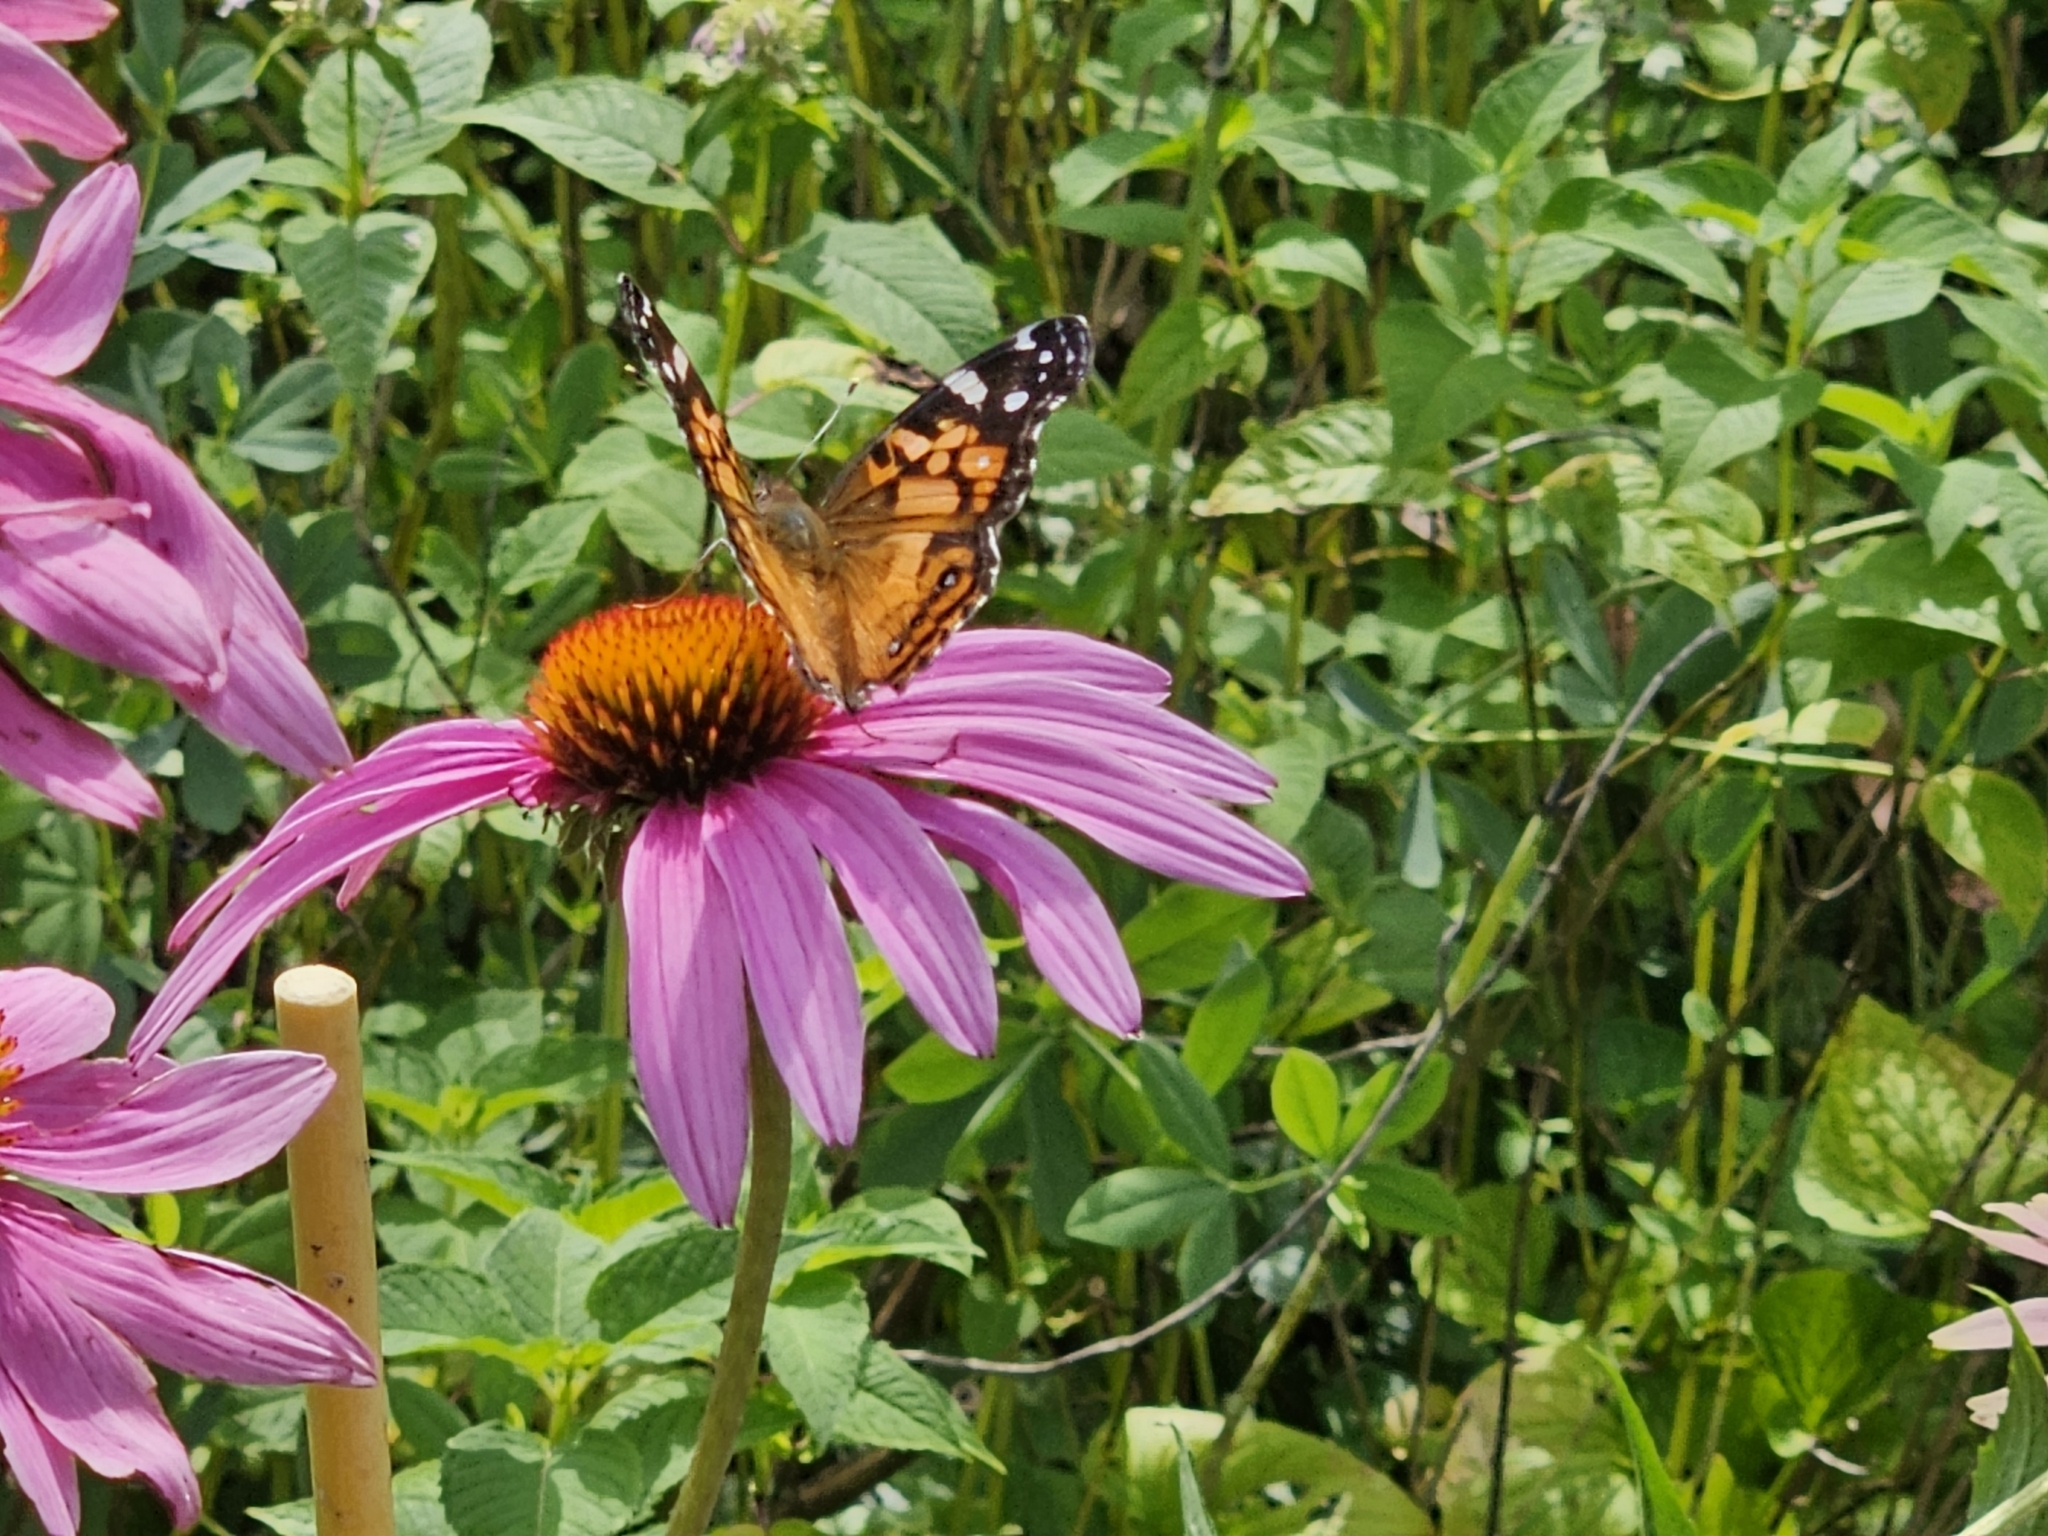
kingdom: Animalia
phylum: Arthropoda
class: Insecta
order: Lepidoptera
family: Nymphalidae
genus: Vanessa
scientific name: Vanessa virginiensis
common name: American lady
